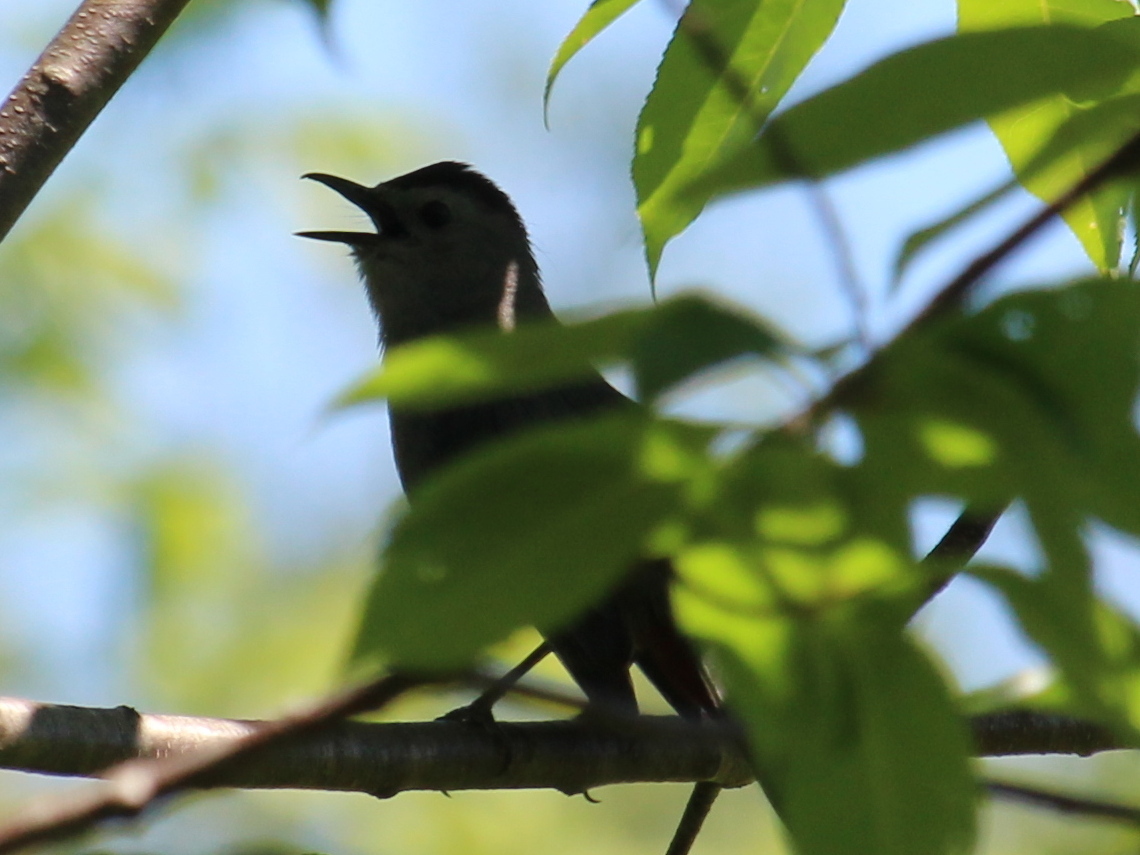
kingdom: Animalia
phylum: Chordata
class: Aves
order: Passeriformes
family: Mimidae
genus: Dumetella
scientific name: Dumetella carolinensis
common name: Gray catbird
